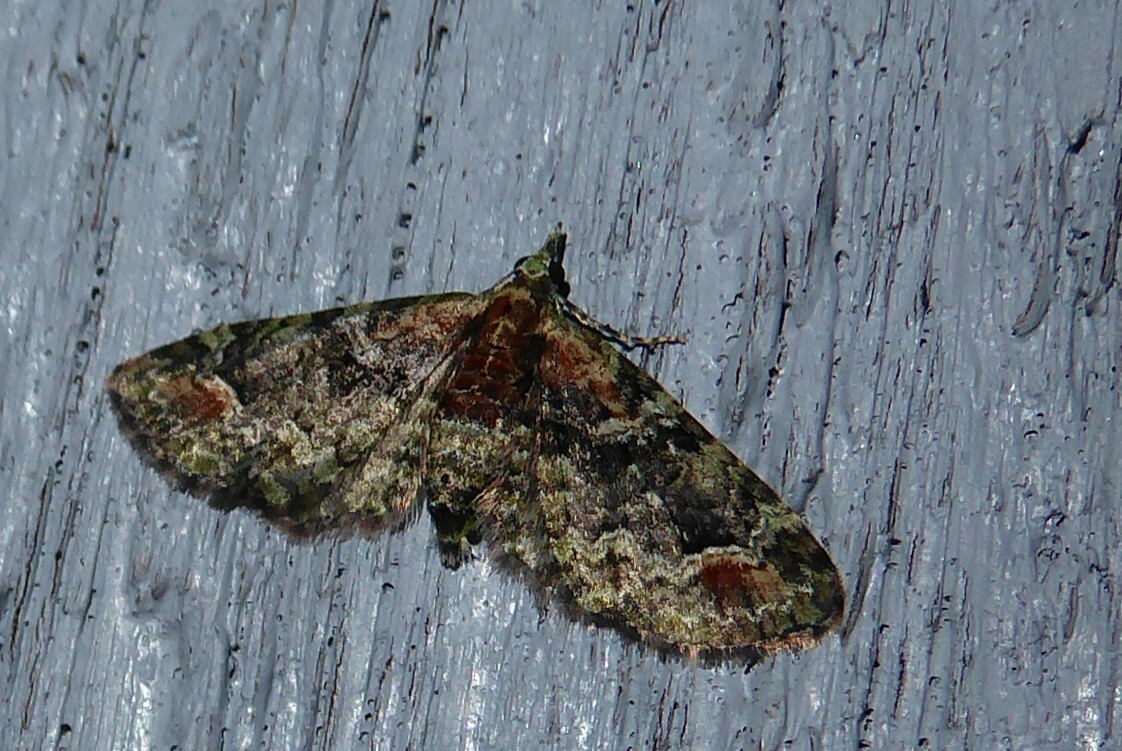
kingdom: Animalia
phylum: Arthropoda
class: Insecta
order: Lepidoptera
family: Geometridae
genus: Idaea
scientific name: Idaea mutanda
